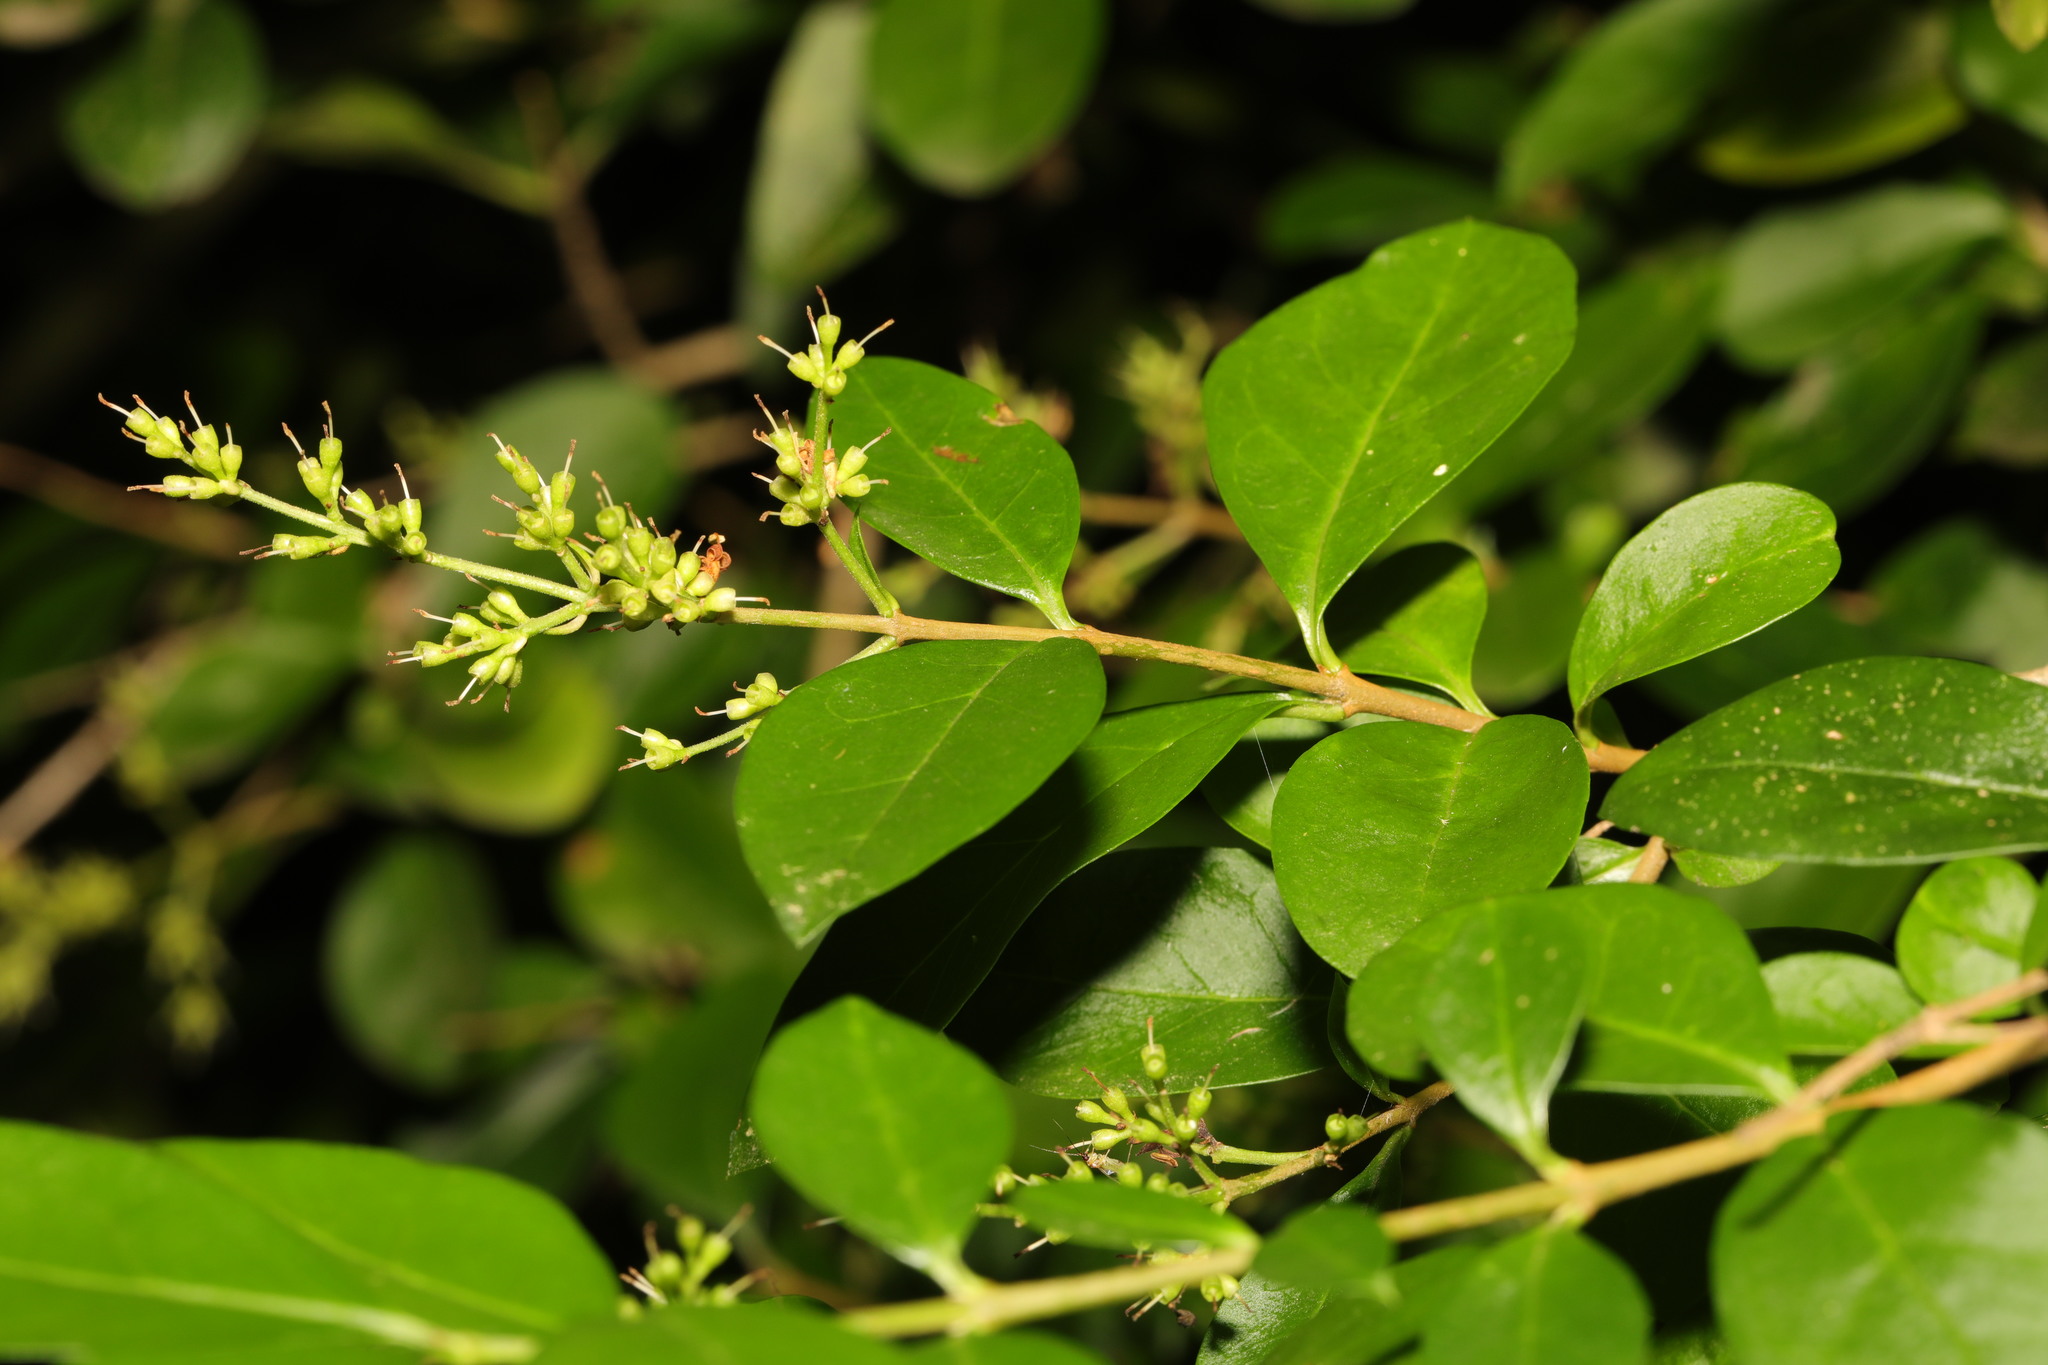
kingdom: Plantae
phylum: Tracheophyta
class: Magnoliopsida
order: Lamiales
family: Oleaceae
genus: Ligustrum
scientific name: Ligustrum ovalifolium
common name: California privet
